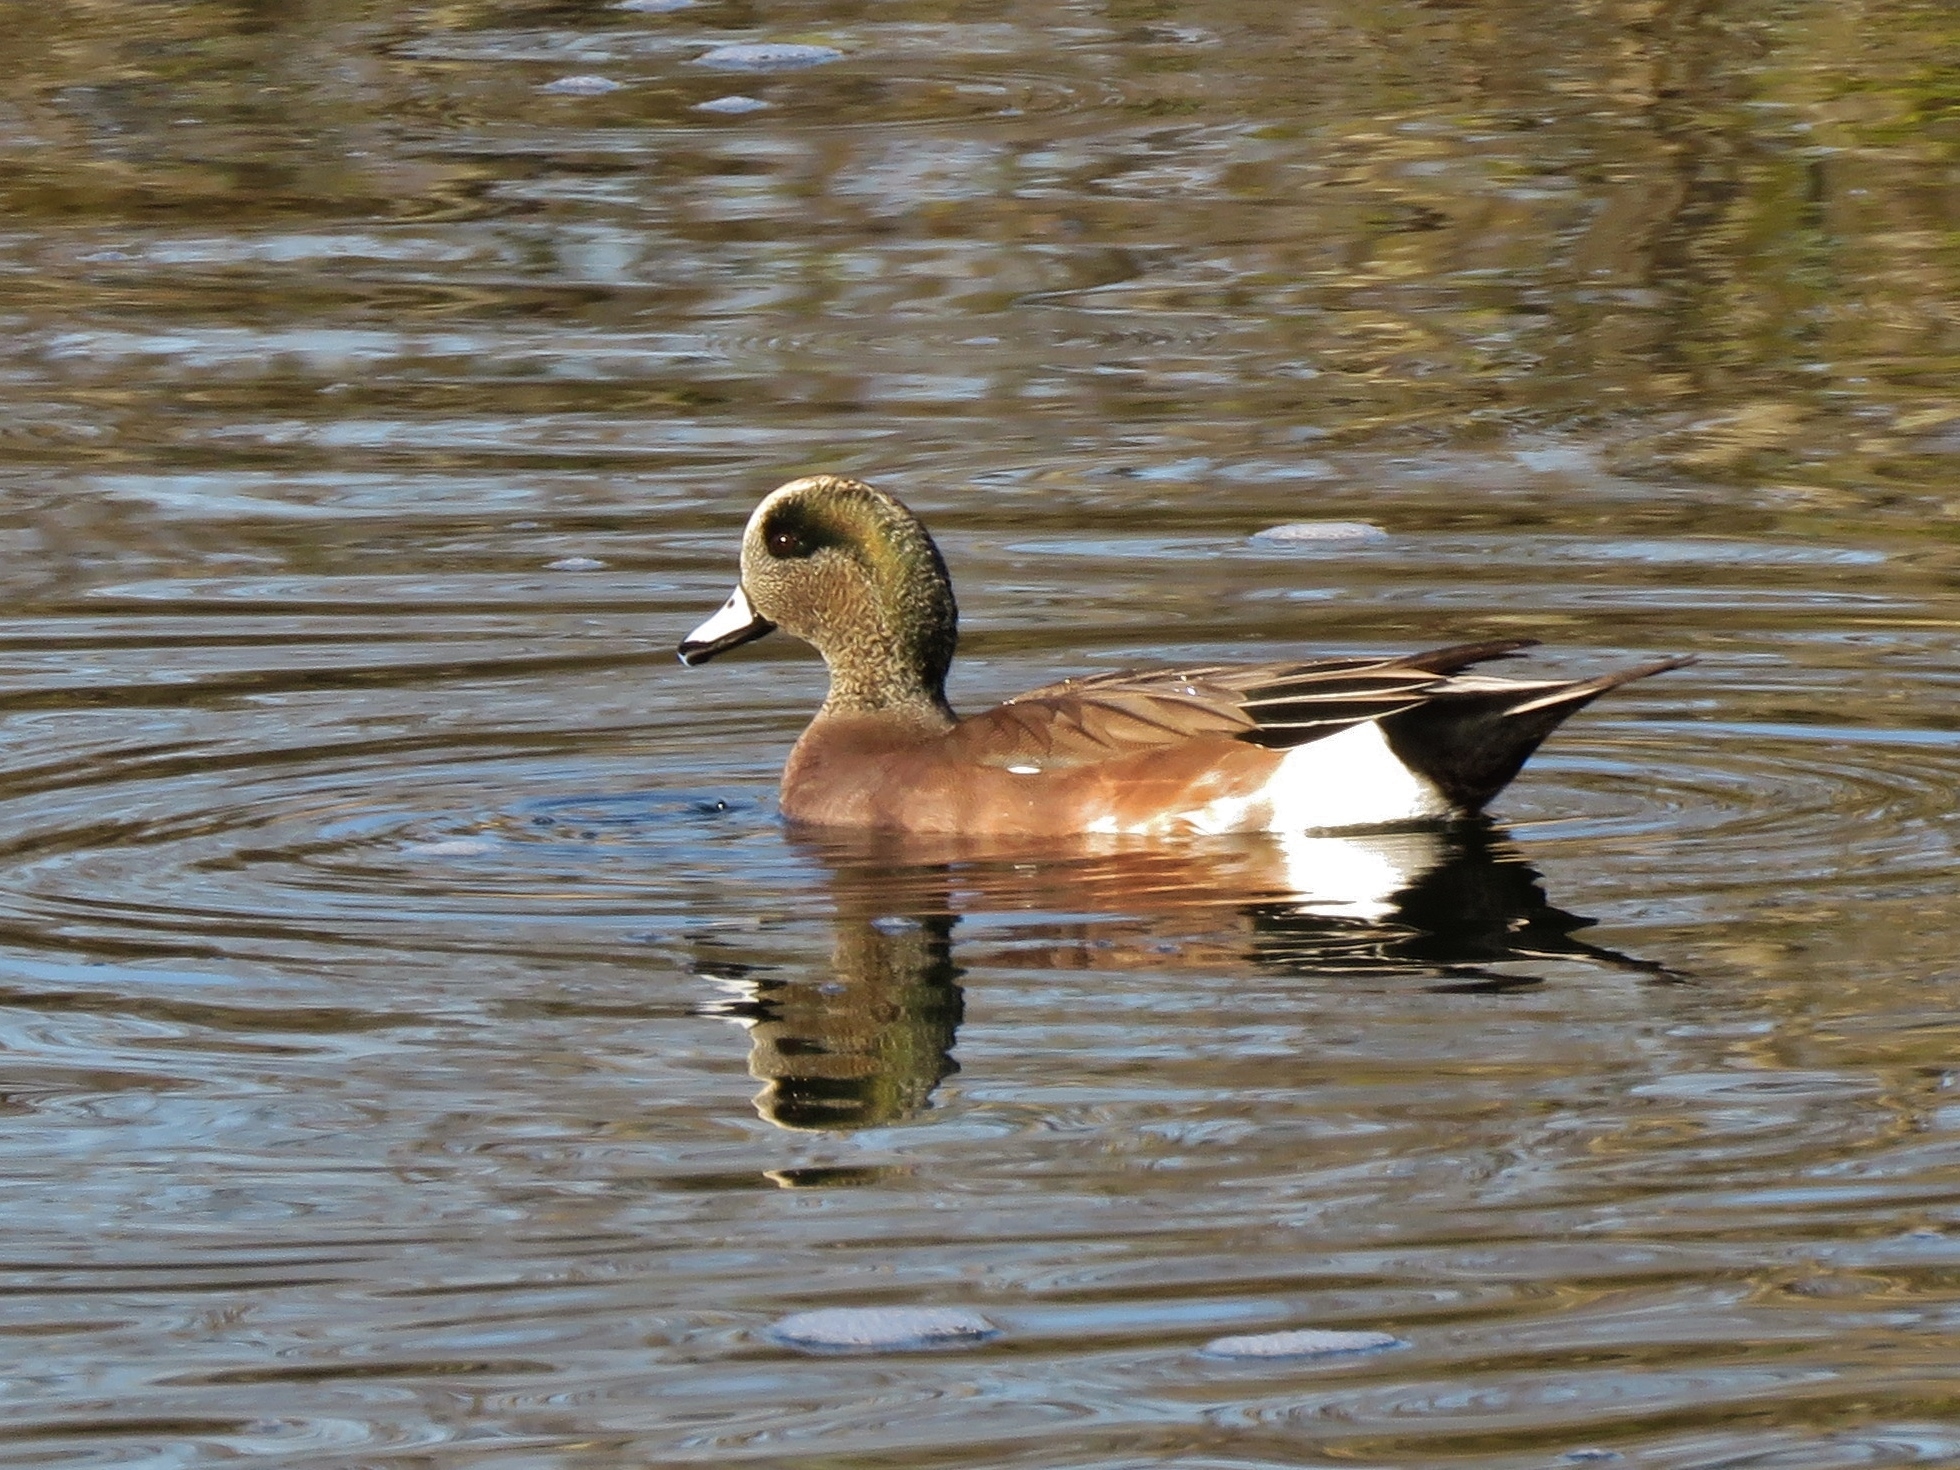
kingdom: Animalia
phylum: Chordata
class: Aves
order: Anseriformes
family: Anatidae
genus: Mareca
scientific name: Mareca americana
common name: American wigeon
